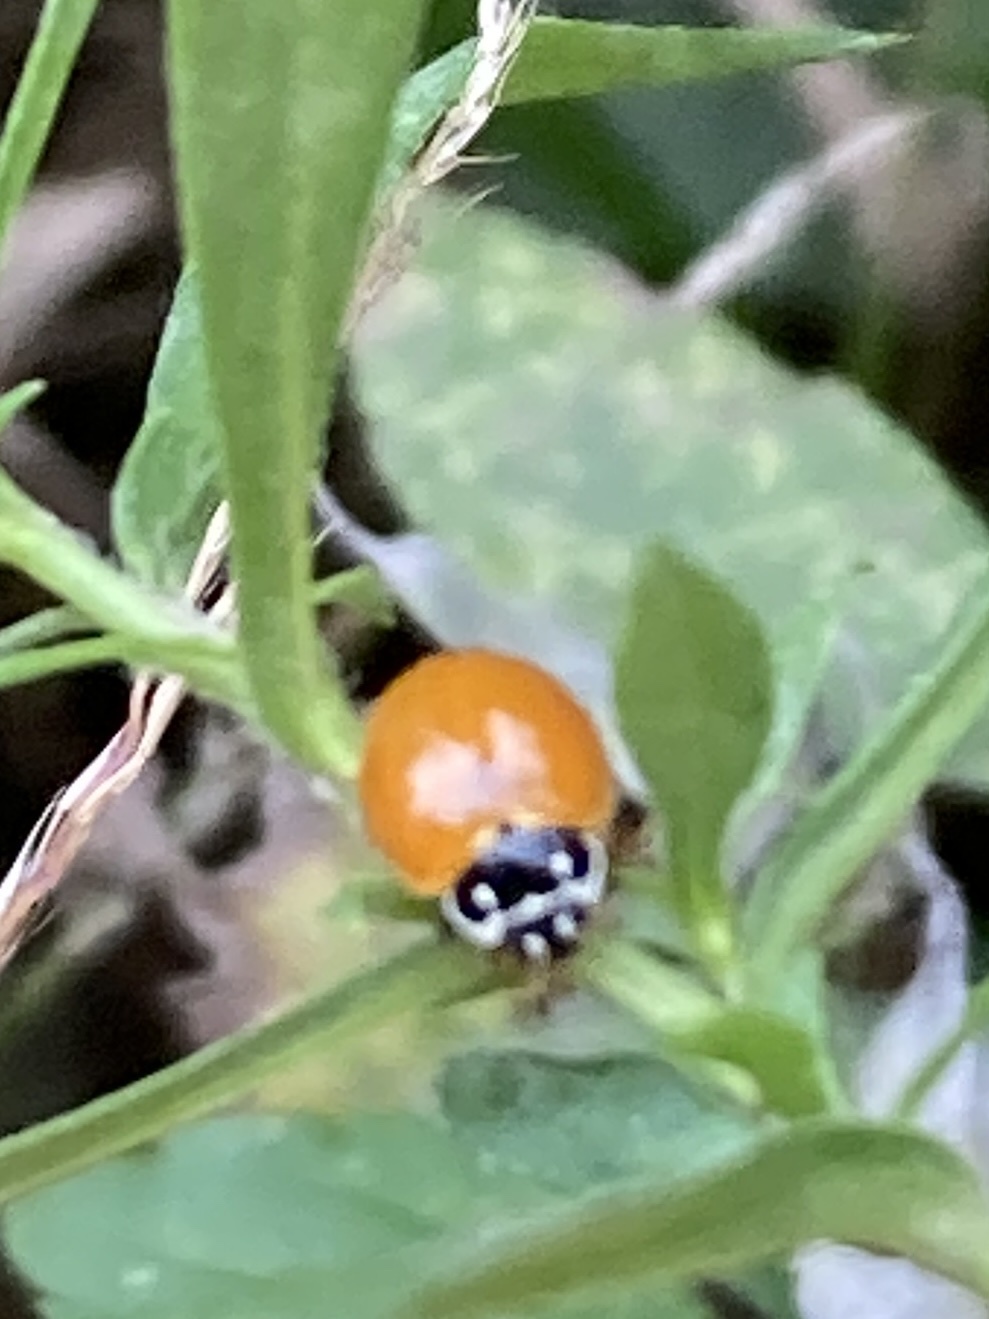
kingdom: Animalia
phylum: Arthropoda
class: Insecta
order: Coleoptera
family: Coccinellidae
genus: Cycloneda
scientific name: Cycloneda munda
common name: Polished lady beetle
